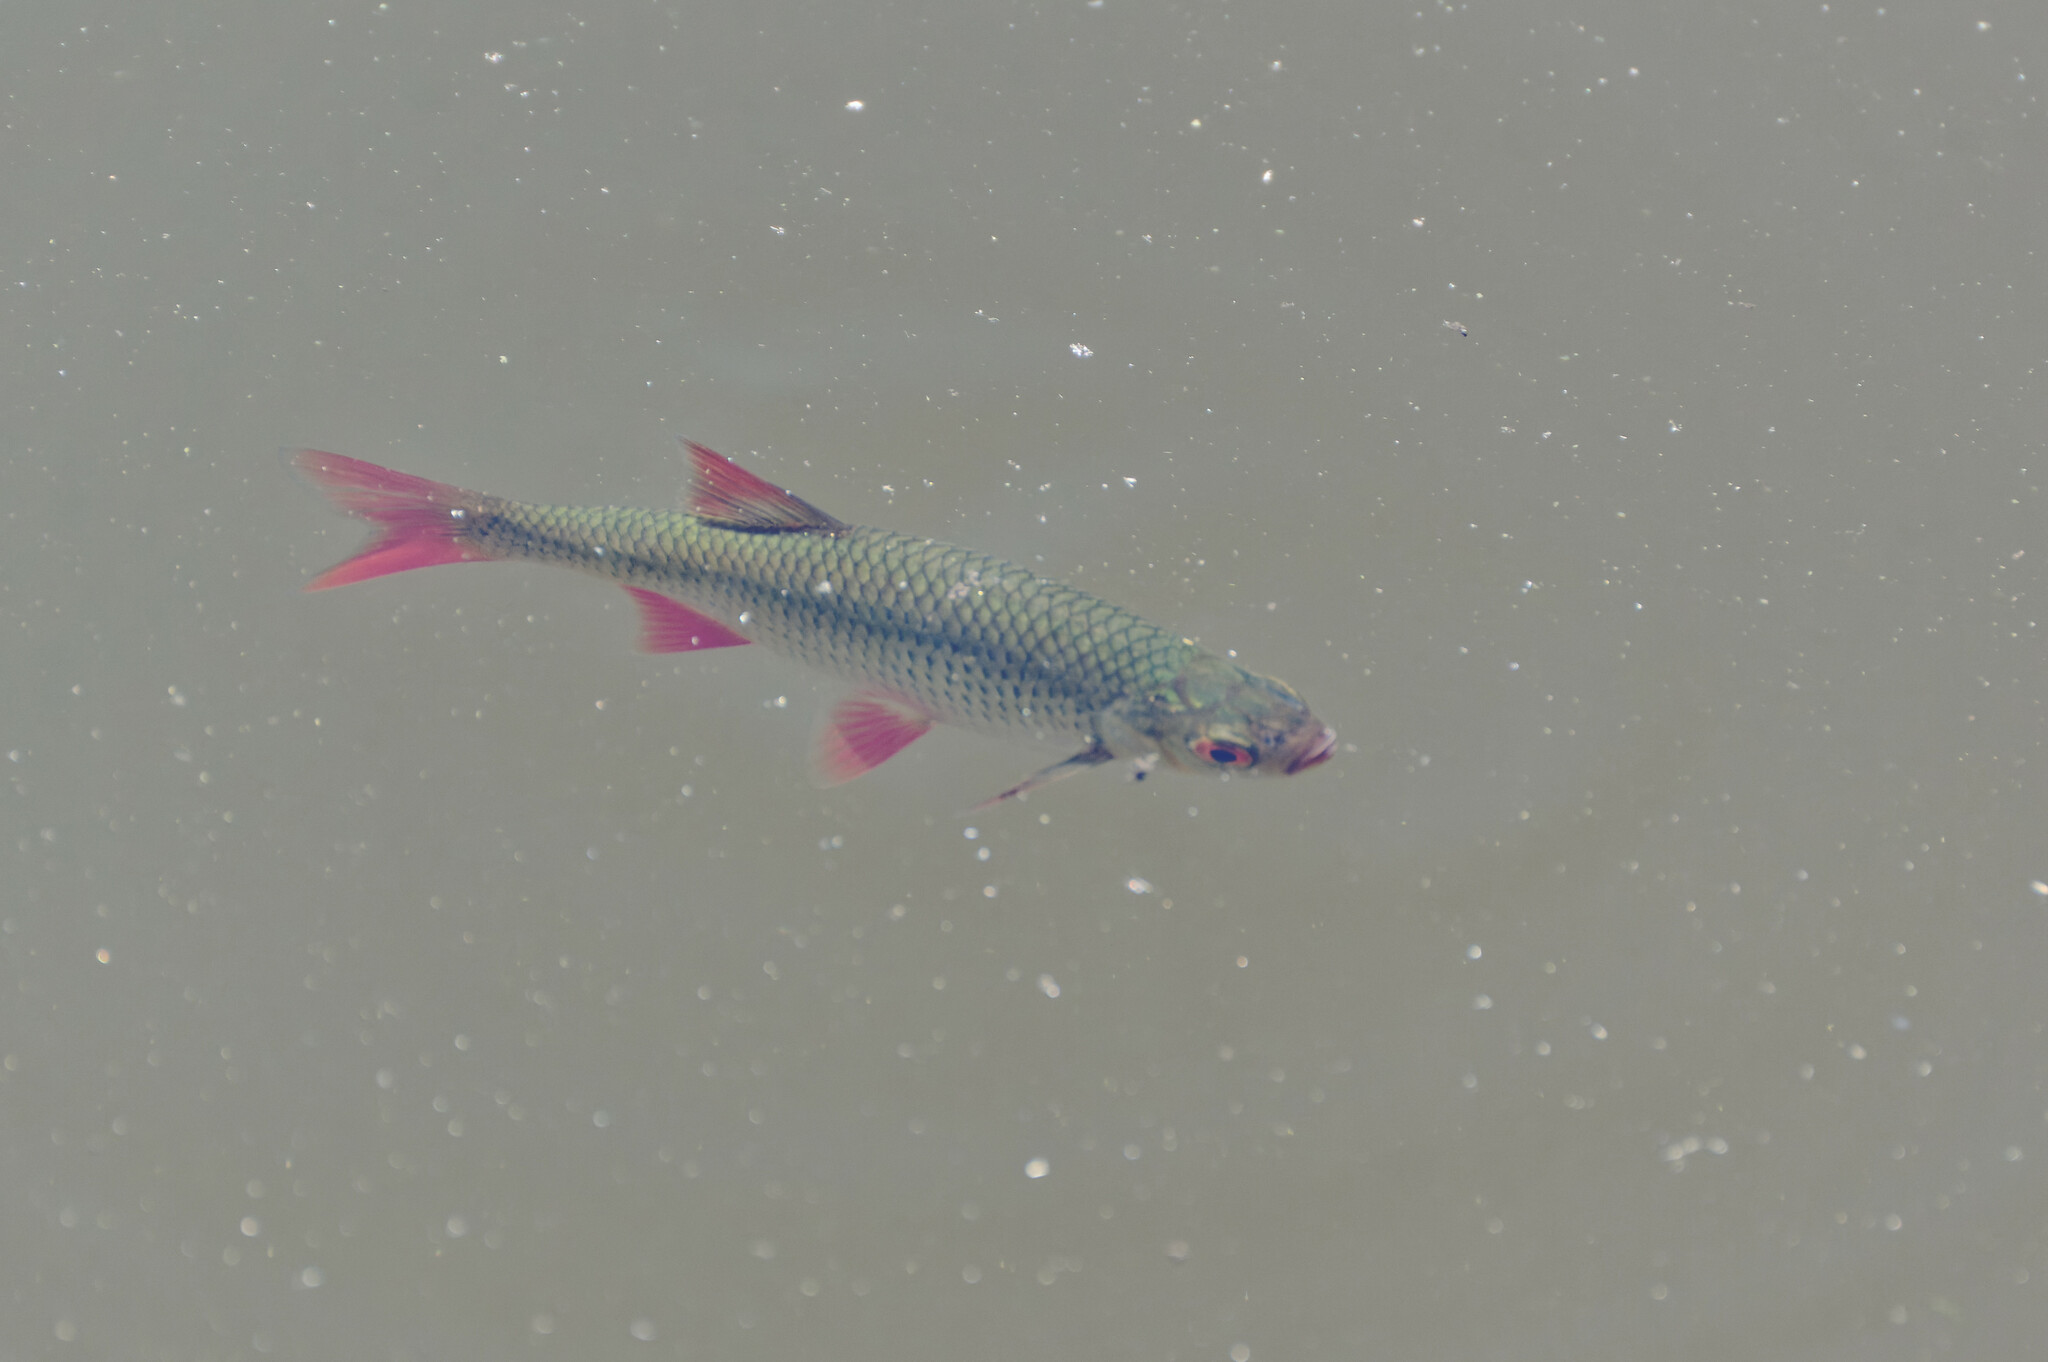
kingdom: Animalia
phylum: Chordata
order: Cypriniformes
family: Cyprinidae
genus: Scardinius
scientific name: Scardinius erythrophthalmus
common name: Rudd
